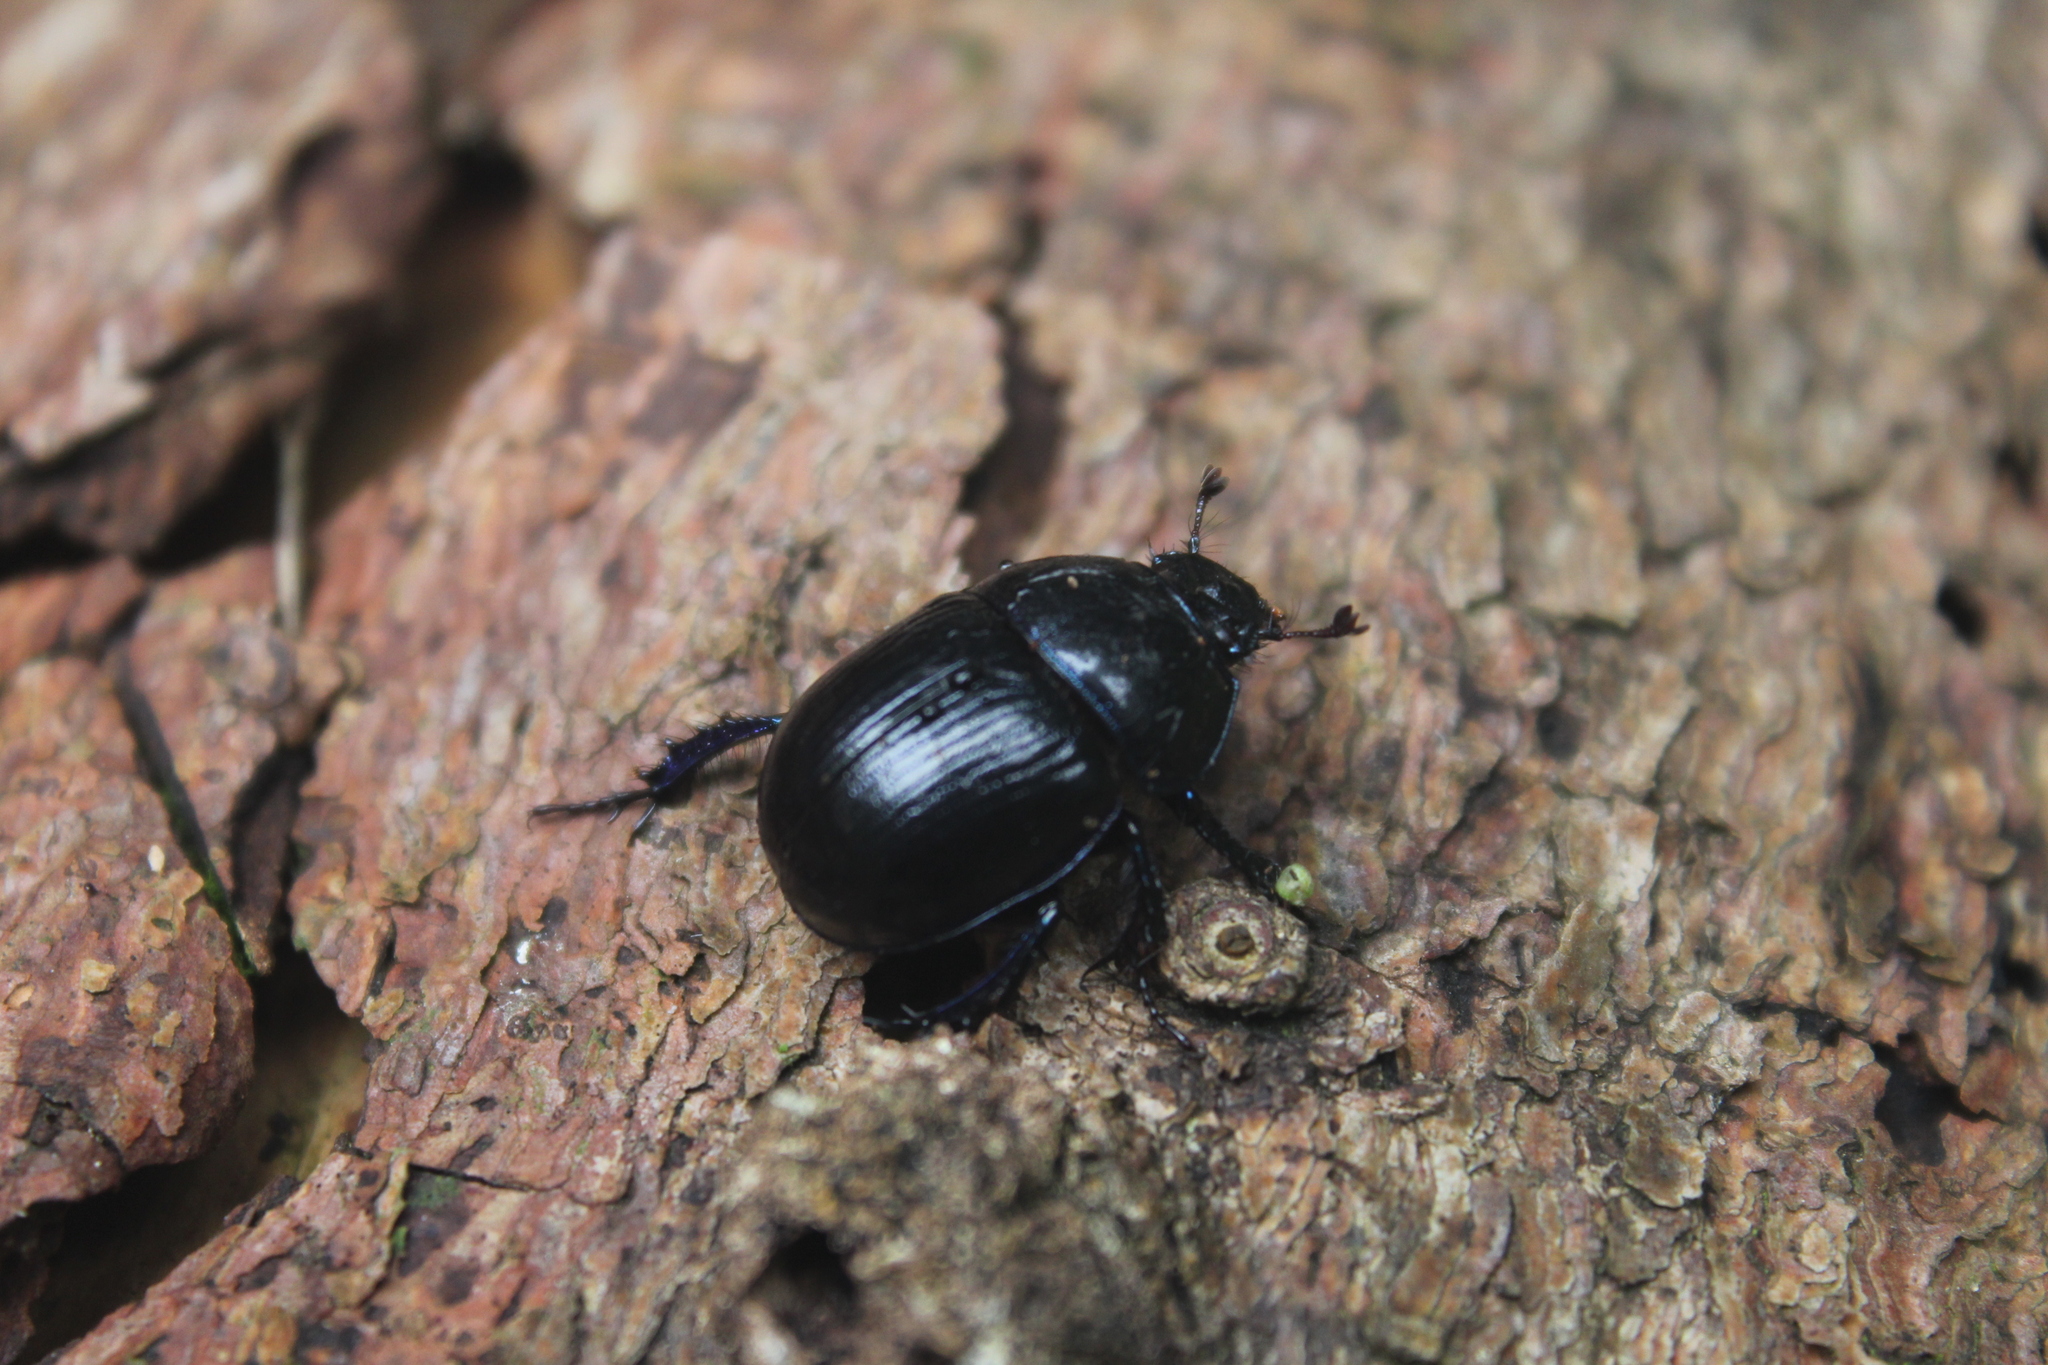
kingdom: Animalia
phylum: Arthropoda
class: Insecta
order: Coleoptera
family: Geotrupidae
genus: Anoplotrupes
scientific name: Anoplotrupes stercorosus
